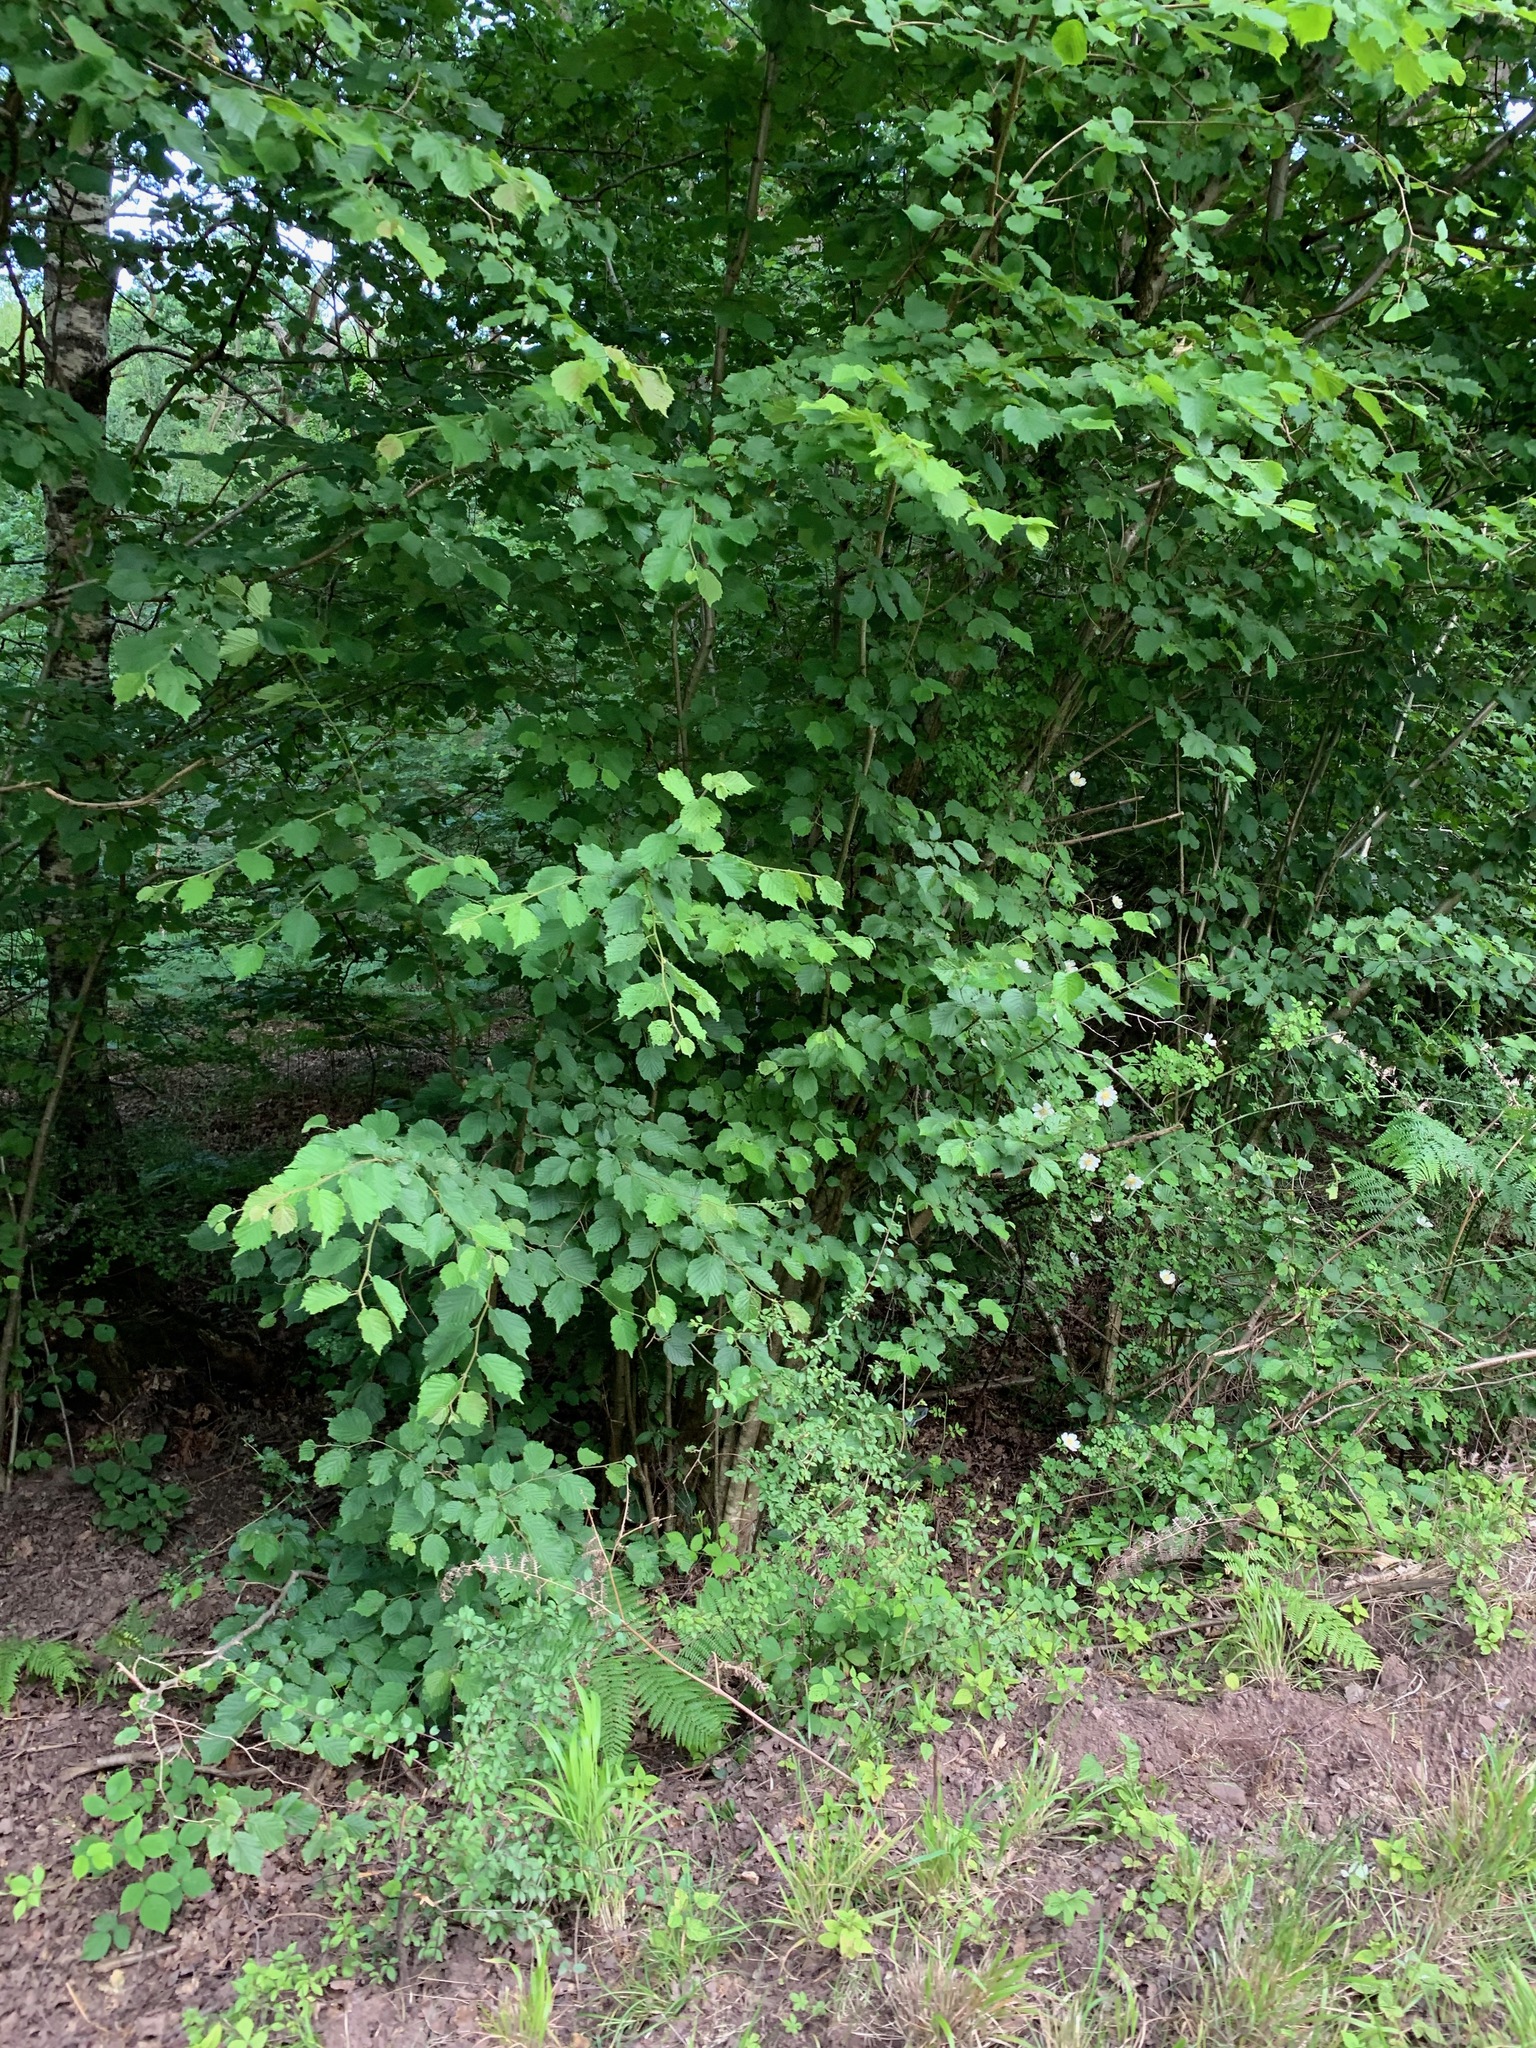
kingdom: Plantae
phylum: Tracheophyta
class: Magnoliopsida
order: Fagales
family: Betulaceae
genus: Corylus
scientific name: Corylus avellana
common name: European hazel
